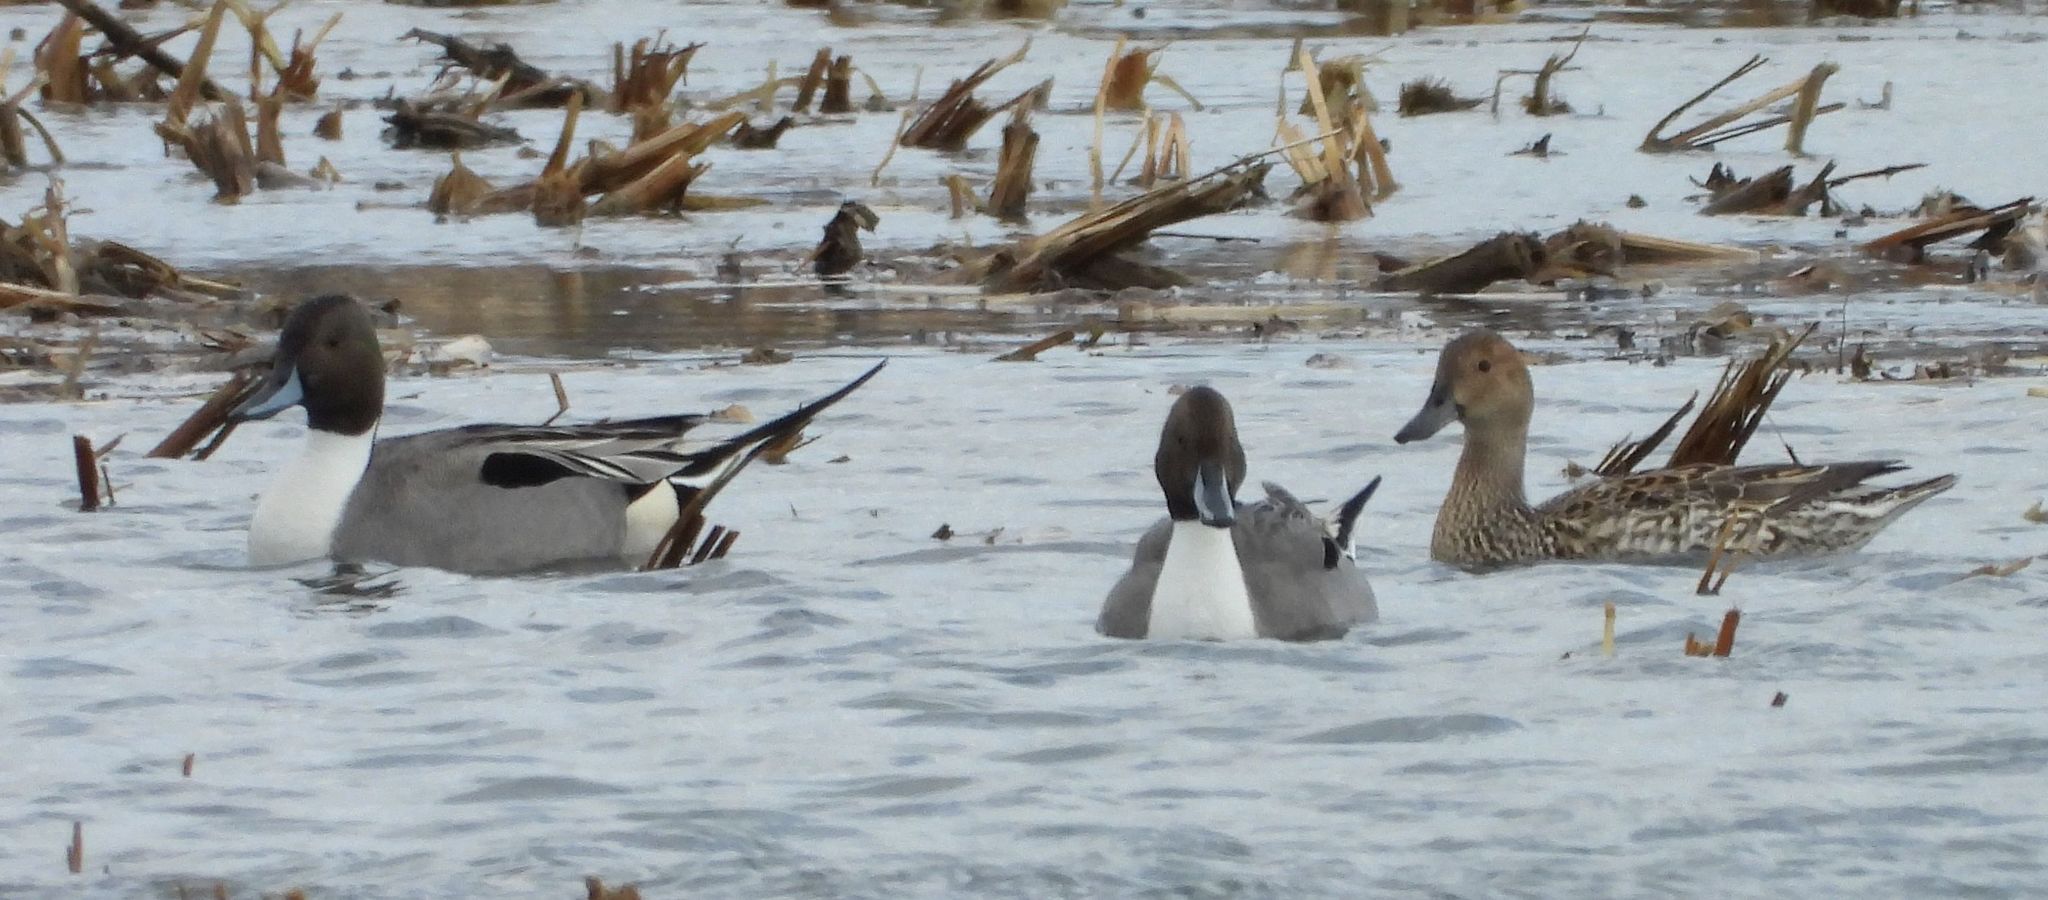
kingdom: Animalia
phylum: Chordata
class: Aves
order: Anseriformes
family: Anatidae
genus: Anas
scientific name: Anas acuta
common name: Northern pintail
